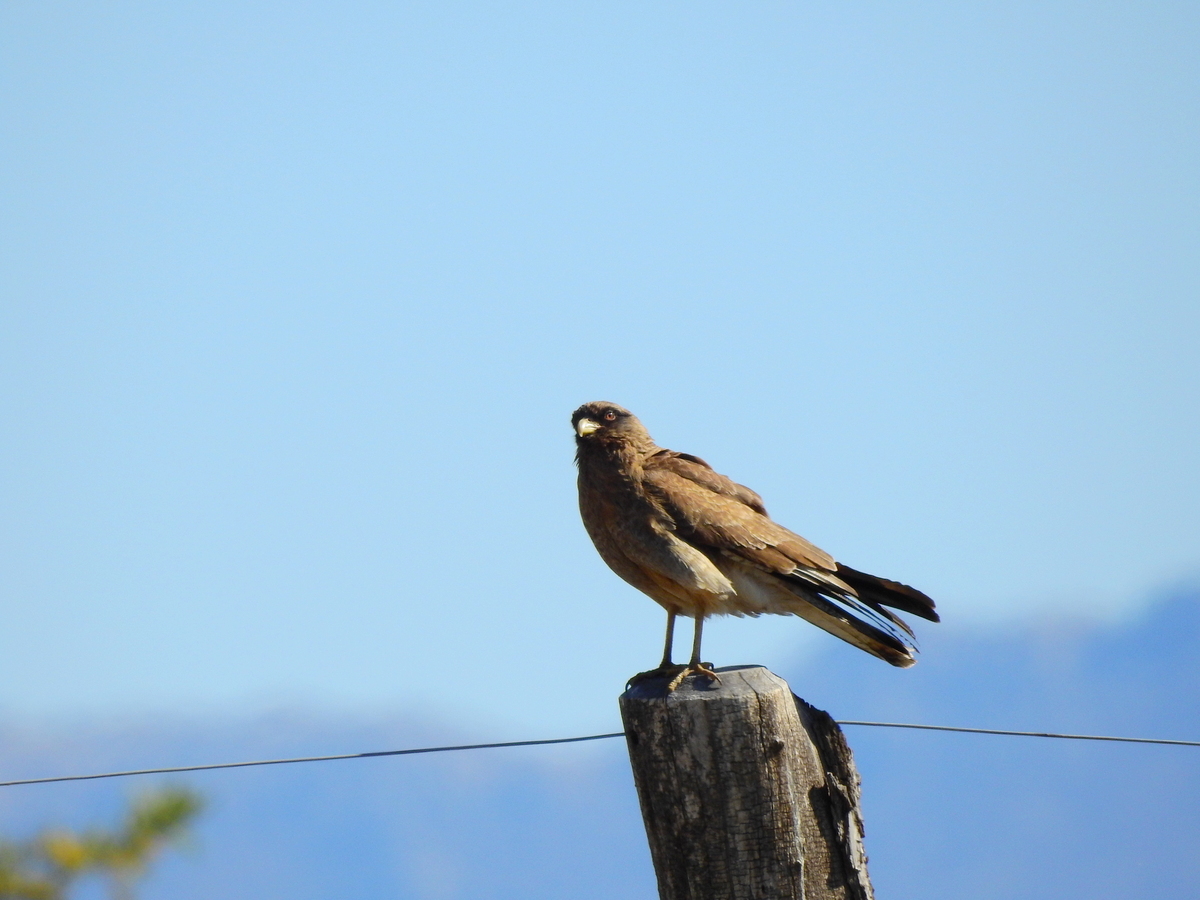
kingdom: Animalia
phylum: Chordata
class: Aves
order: Falconiformes
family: Falconidae
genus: Daptrius
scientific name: Daptrius
